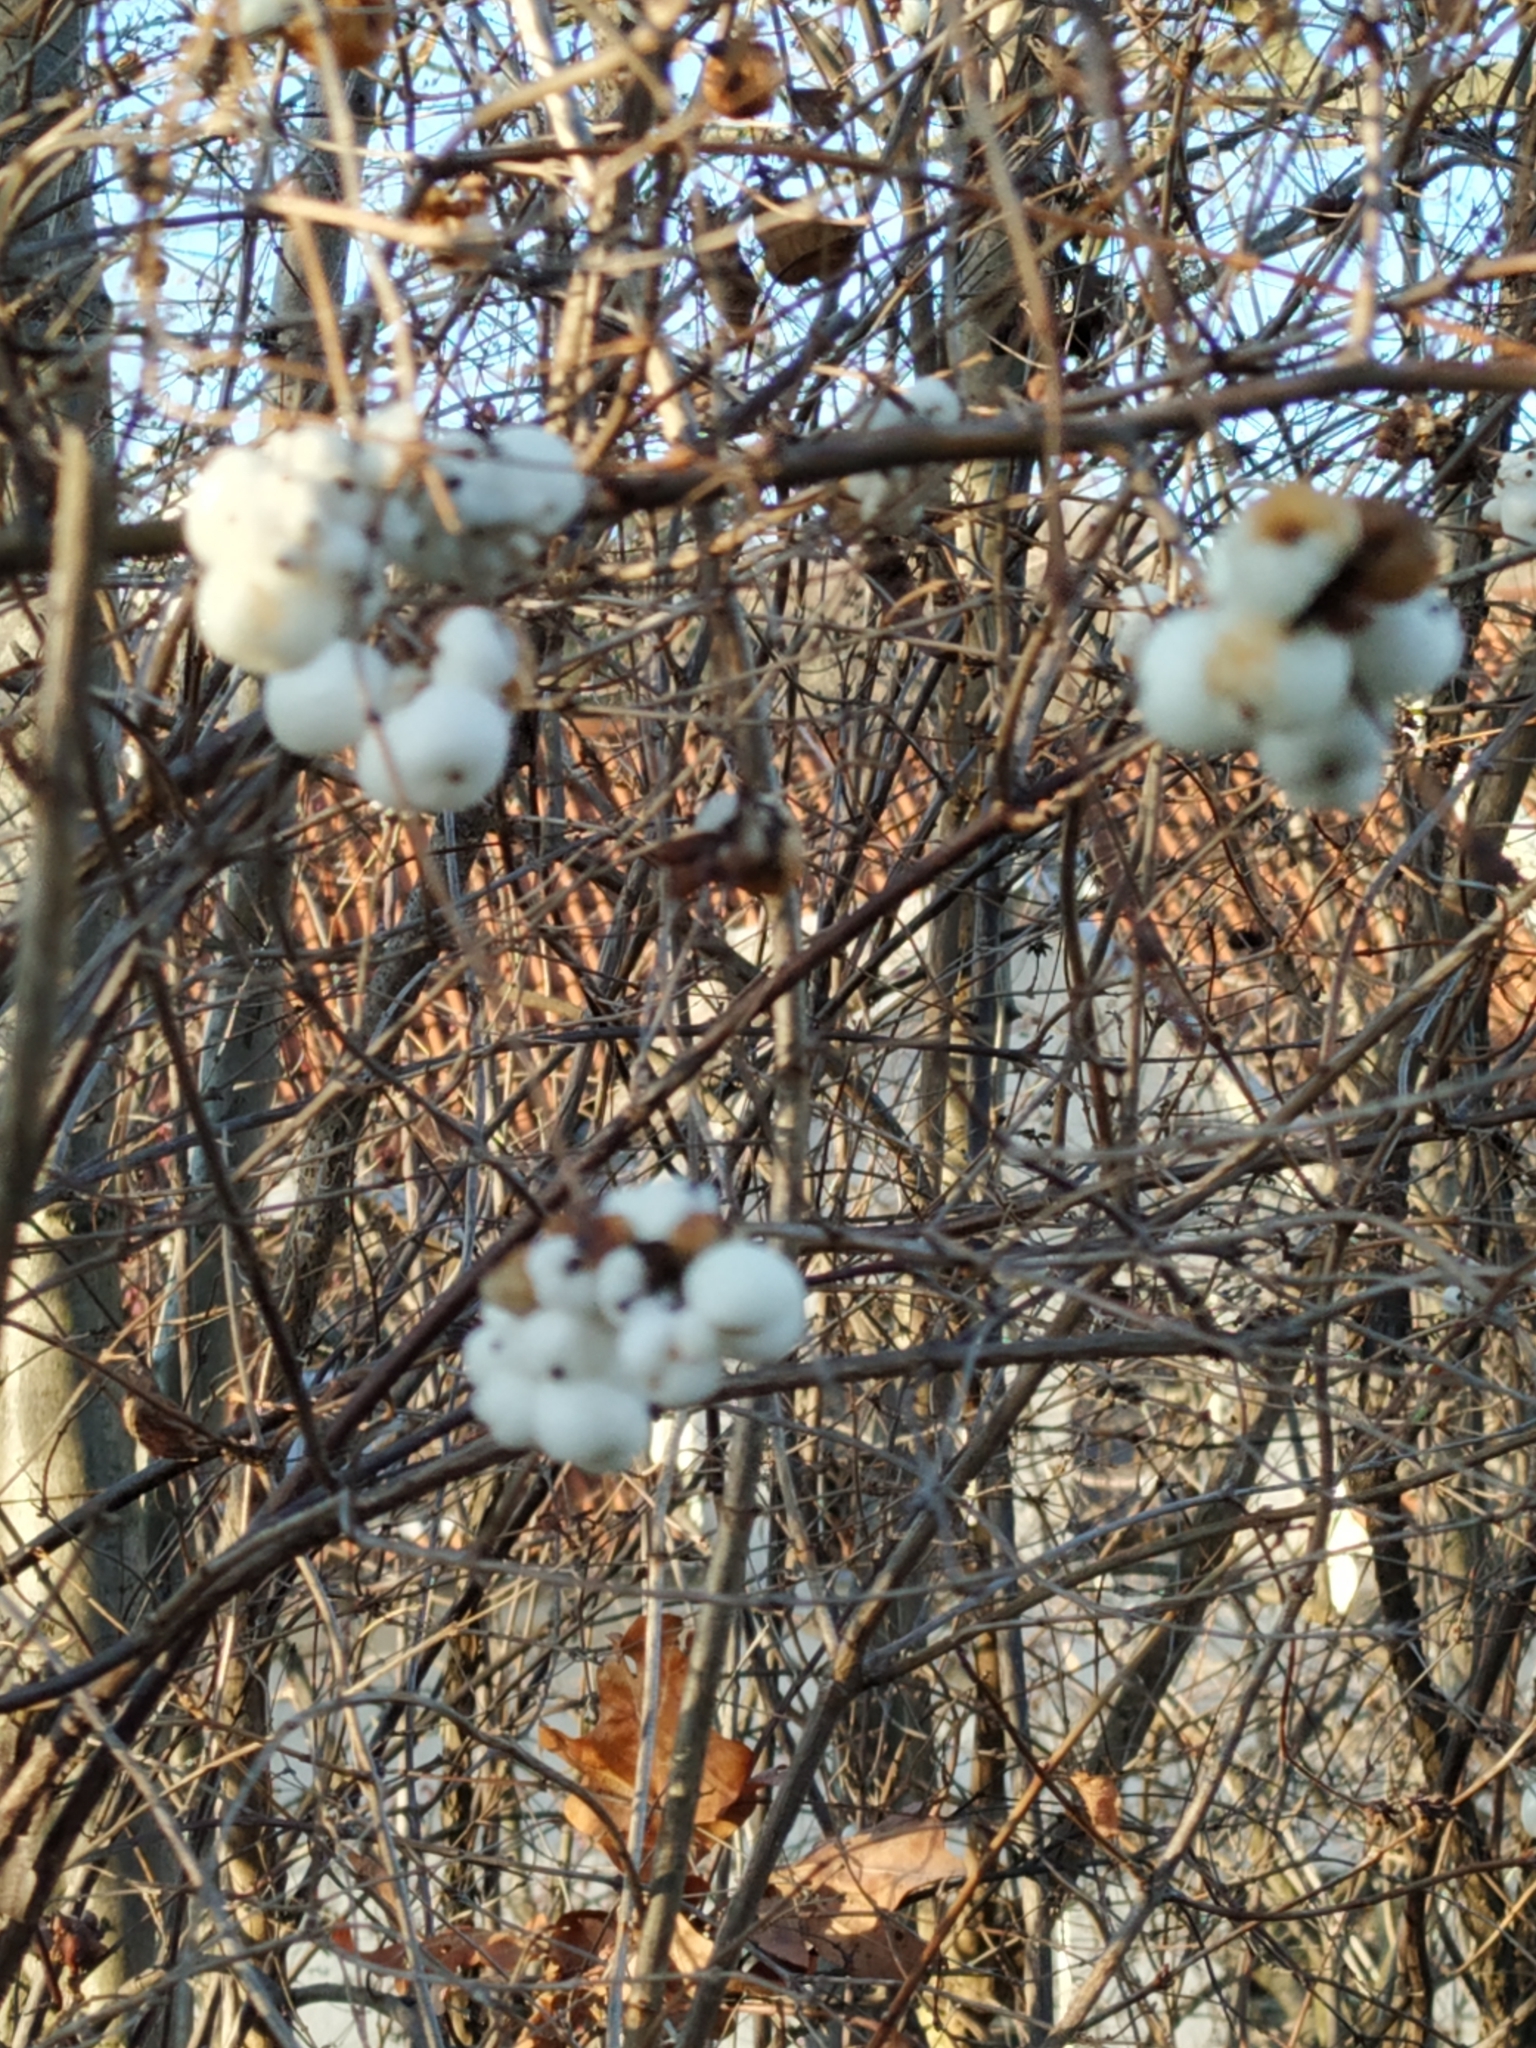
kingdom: Plantae
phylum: Tracheophyta
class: Magnoliopsida
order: Dipsacales
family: Caprifoliaceae
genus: Symphoricarpos
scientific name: Symphoricarpos albus
